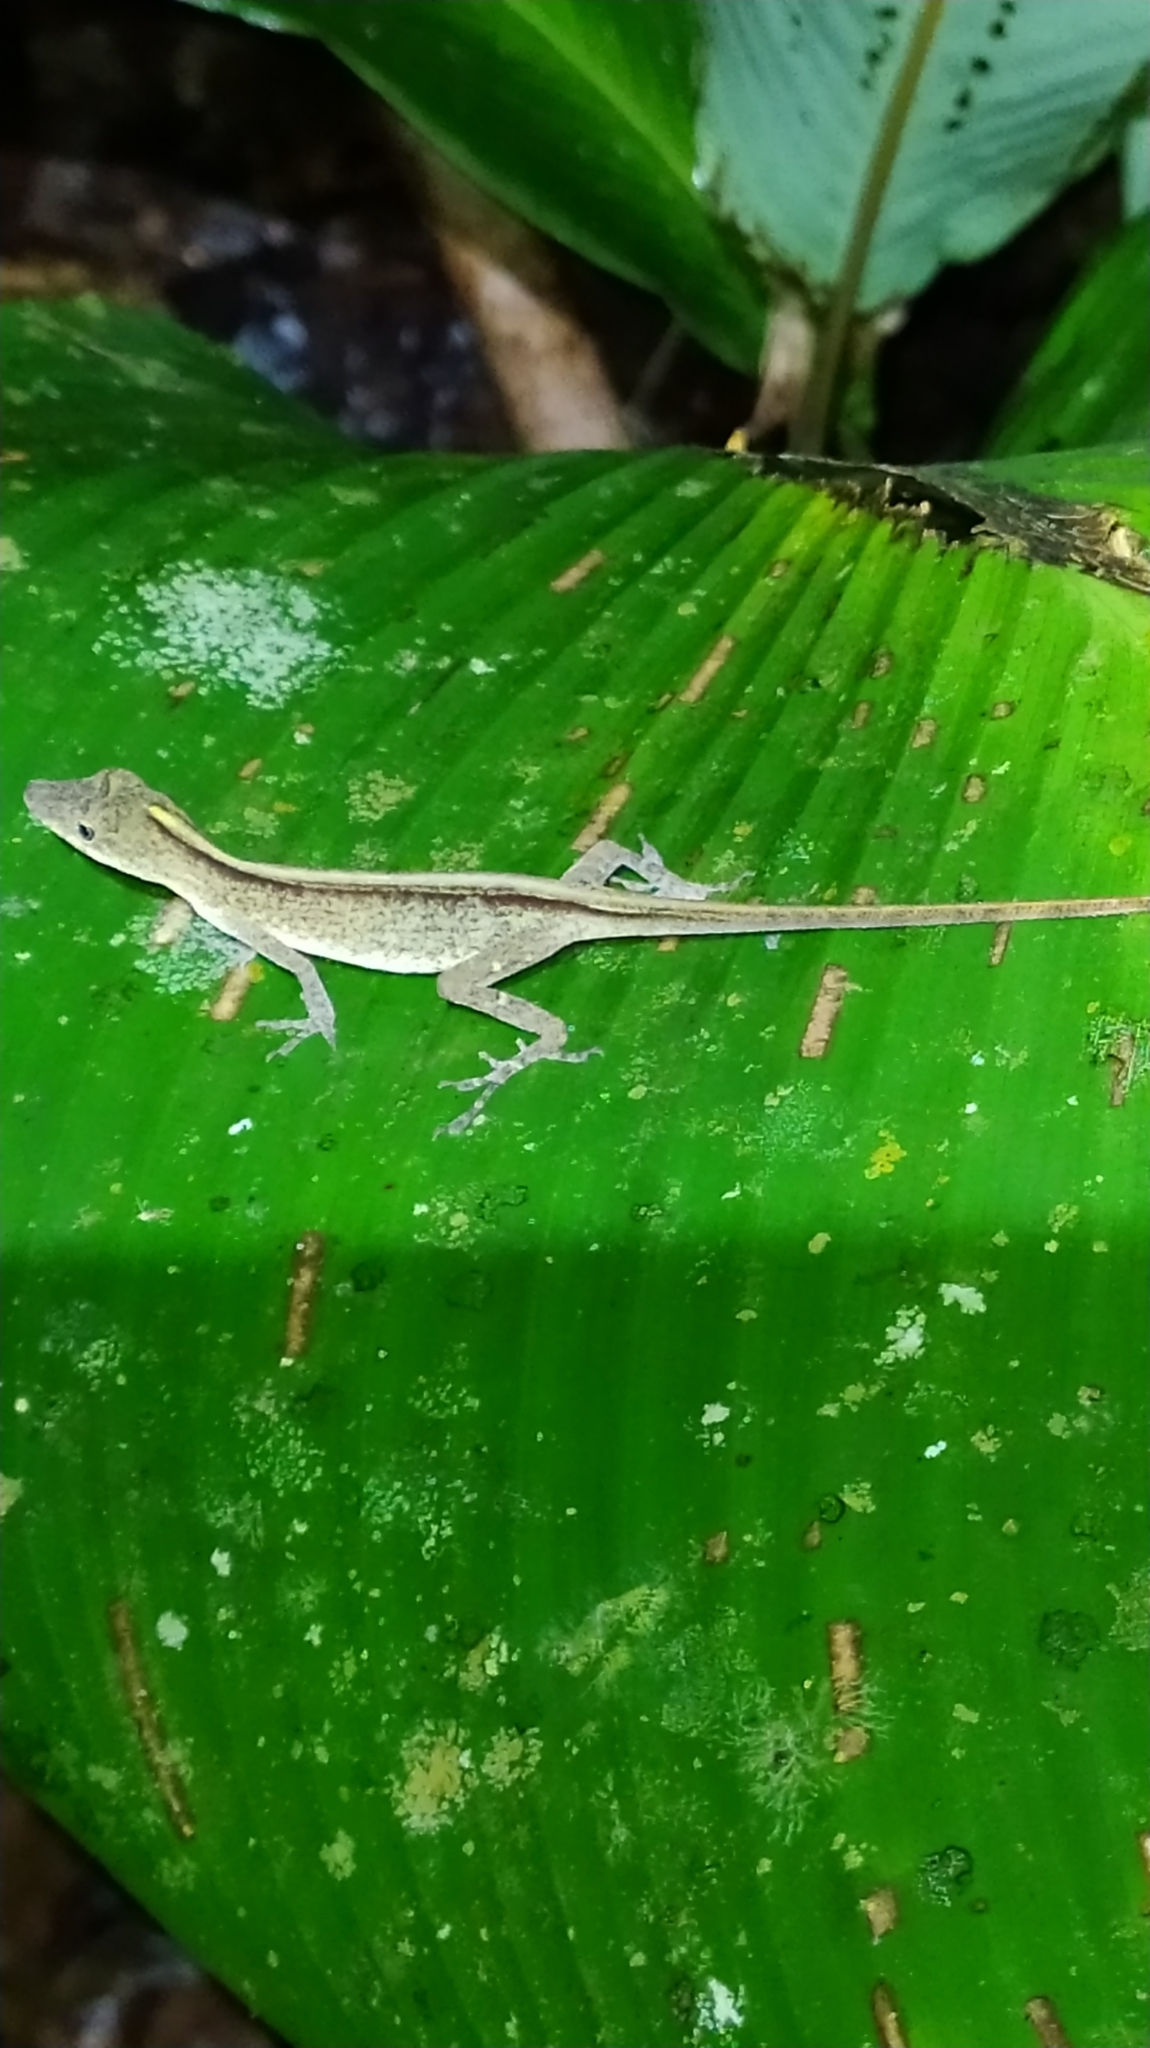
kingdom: Animalia
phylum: Chordata
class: Squamata
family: Dactyloidae
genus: Anolis
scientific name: Anolis fuscoauratus
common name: Brown-eared anole
